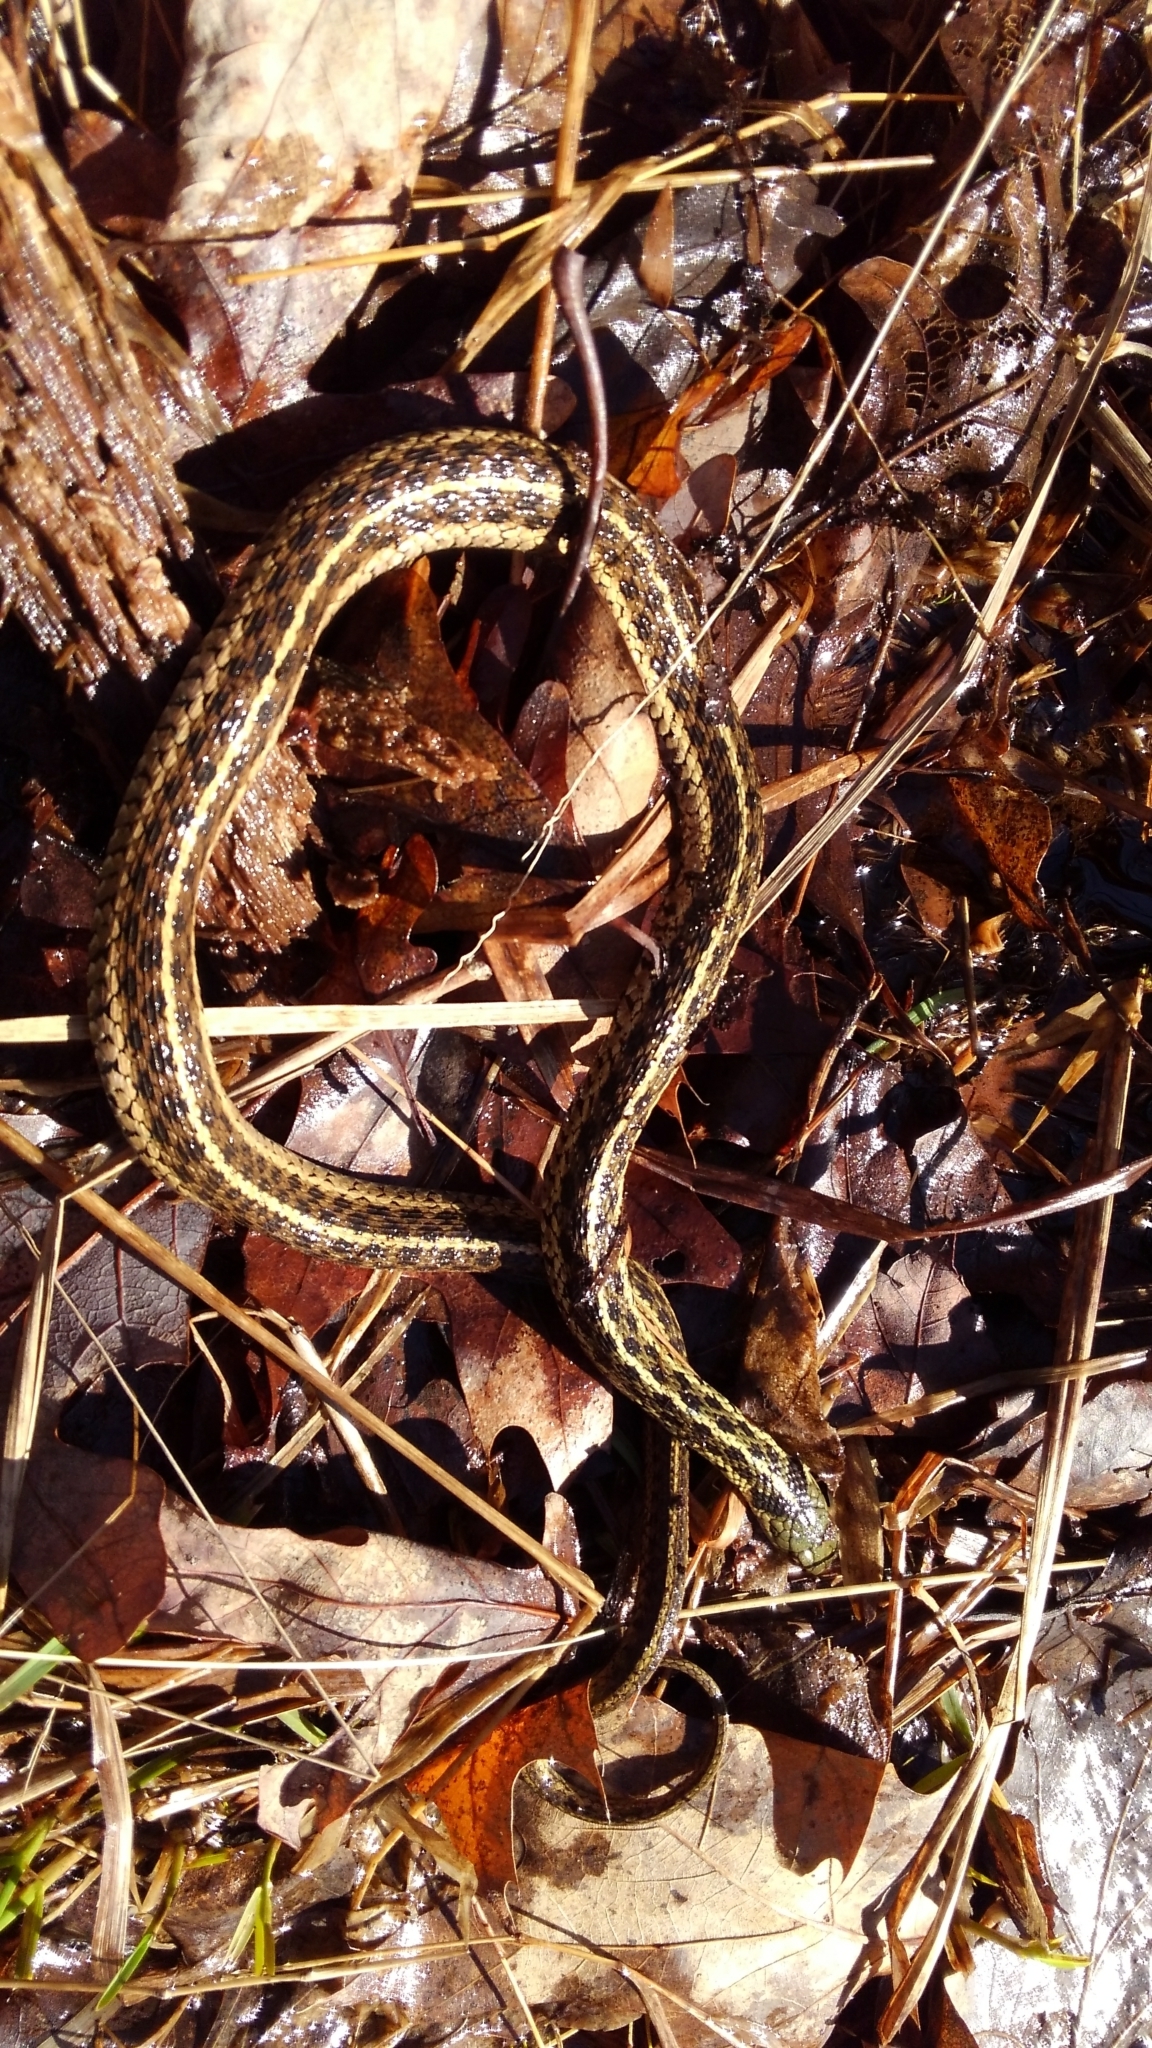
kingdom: Animalia
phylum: Chordata
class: Squamata
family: Colubridae
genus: Thamnophis
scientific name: Thamnophis sirtalis
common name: Common garter snake
